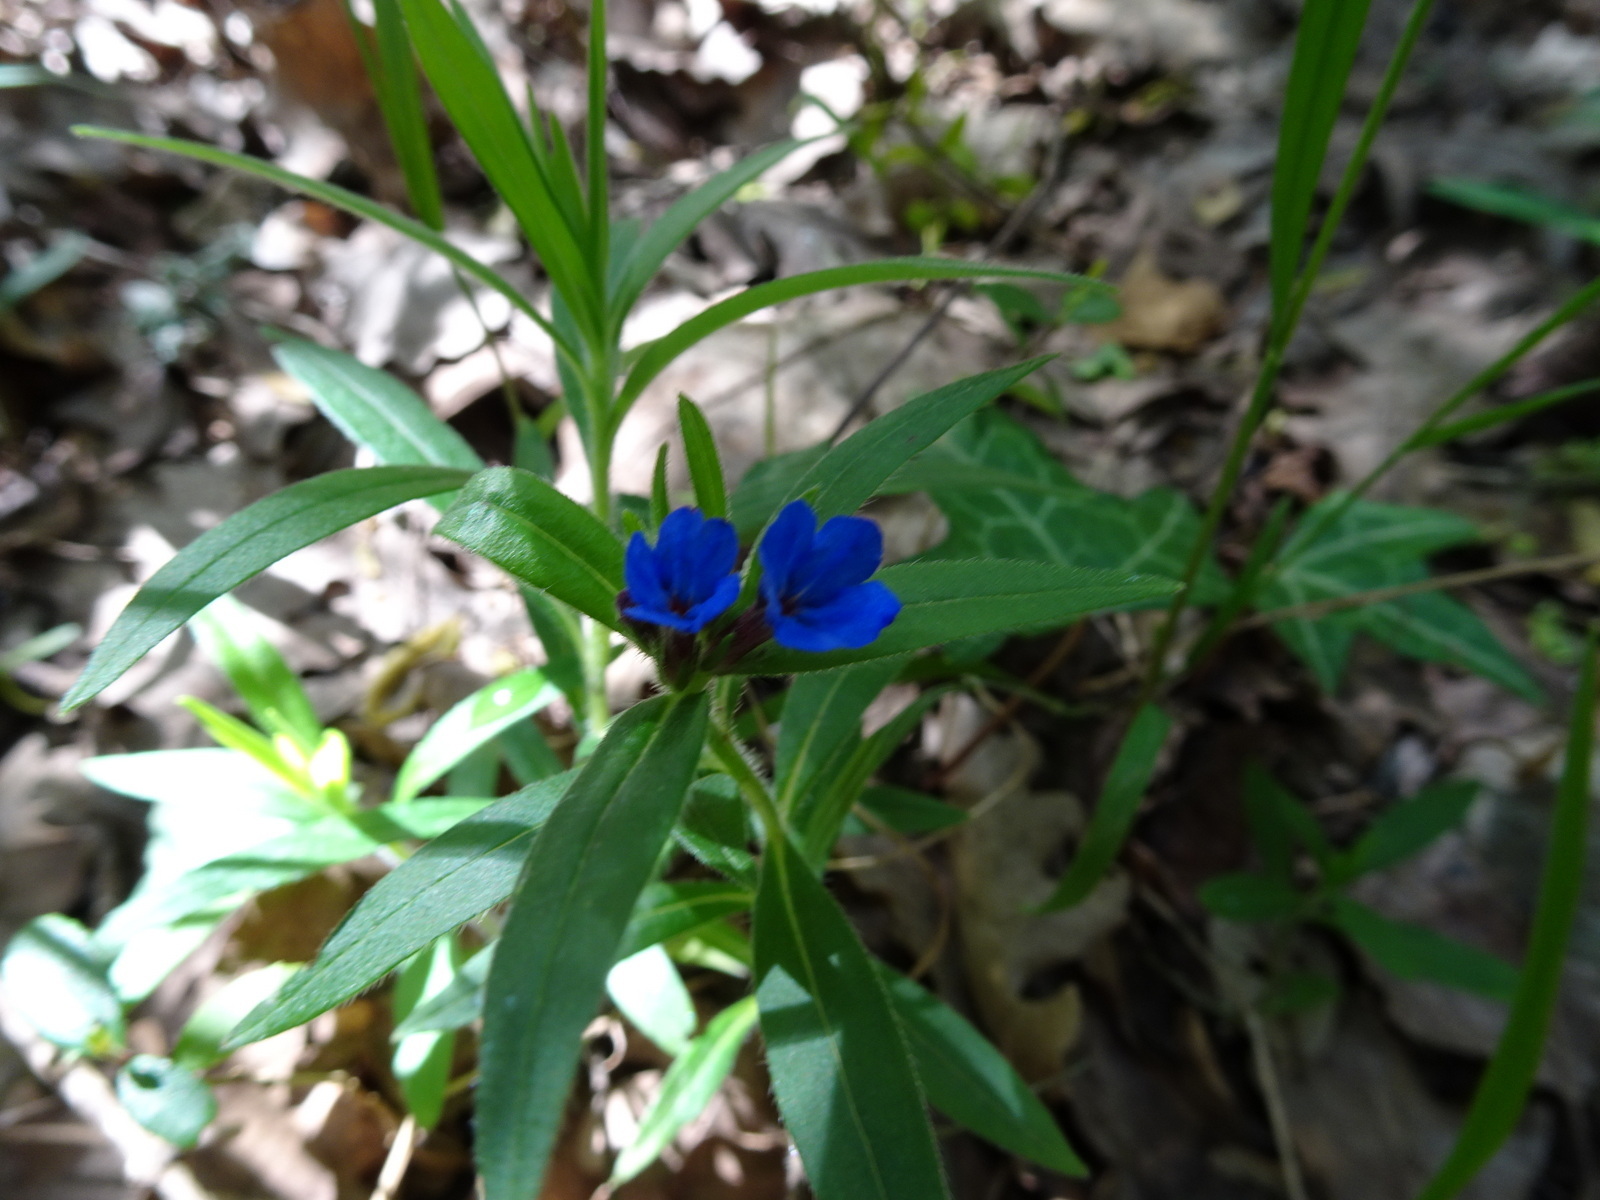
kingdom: Plantae
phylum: Tracheophyta
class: Magnoliopsida
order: Boraginales
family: Boraginaceae
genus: Aegonychon
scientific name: Aegonychon purpurocaeruleum
